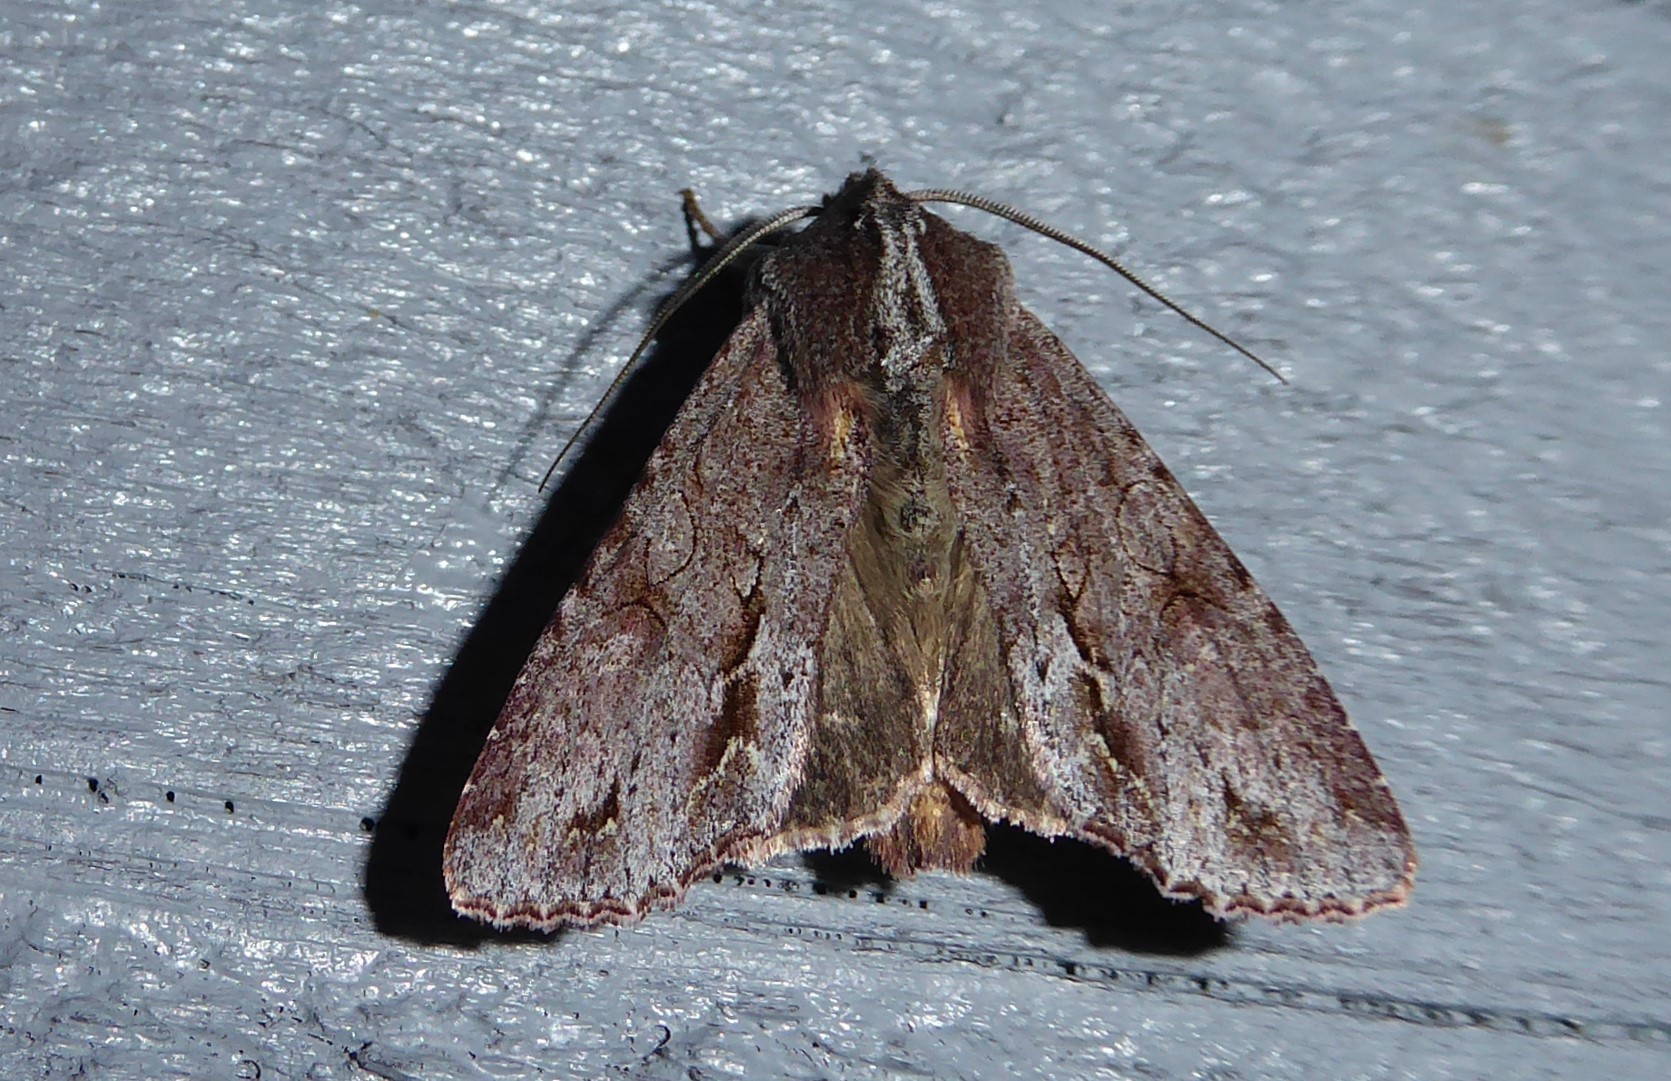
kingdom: Animalia
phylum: Arthropoda
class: Insecta
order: Lepidoptera
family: Noctuidae
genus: Ichneutica
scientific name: Ichneutica
